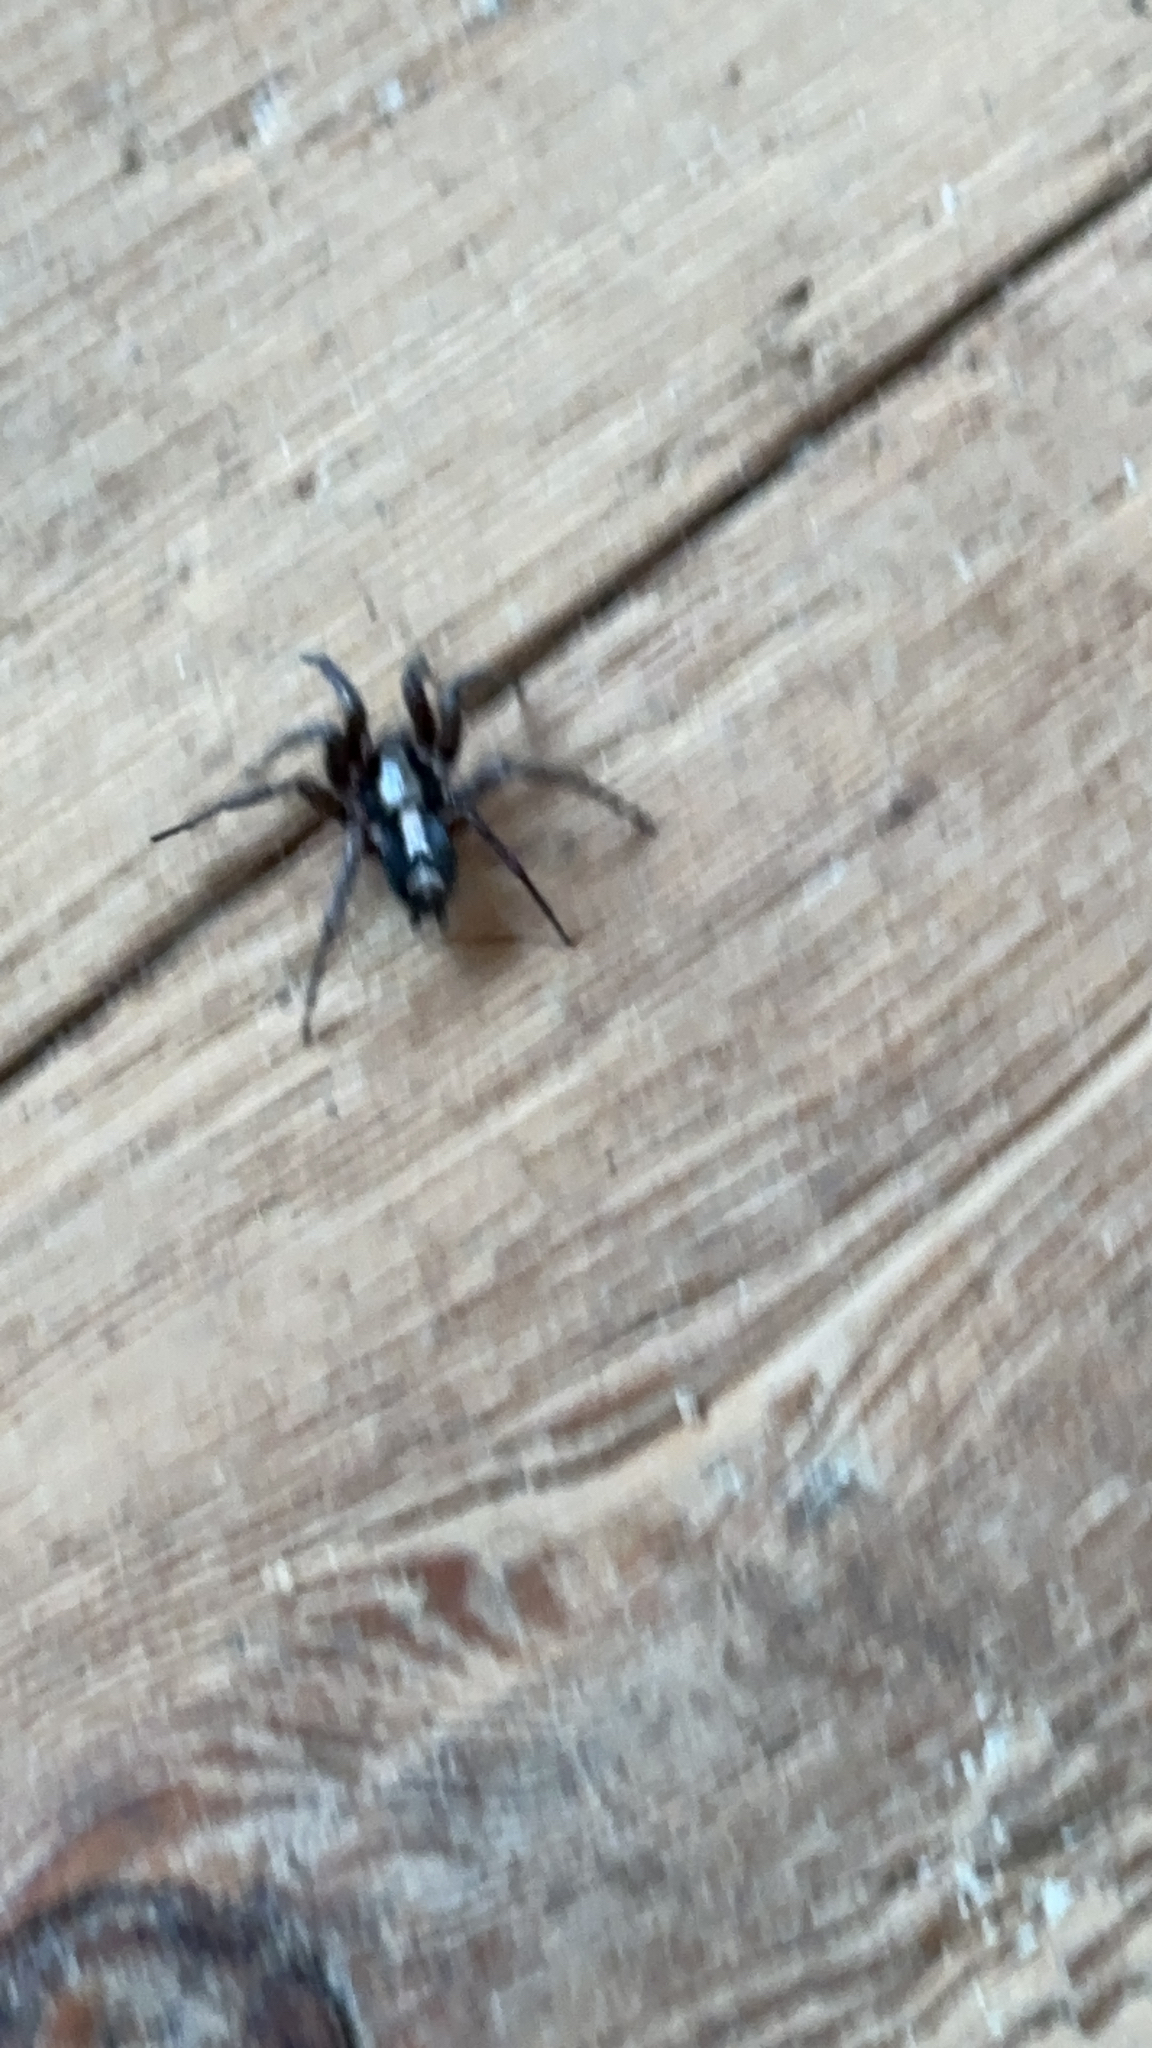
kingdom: Animalia
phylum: Arthropoda
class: Arachnida
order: Araneae
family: Gnaphosidae
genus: Herpyllus
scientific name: Herpyllus ecclesiasticus
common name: Eastern parson spider
